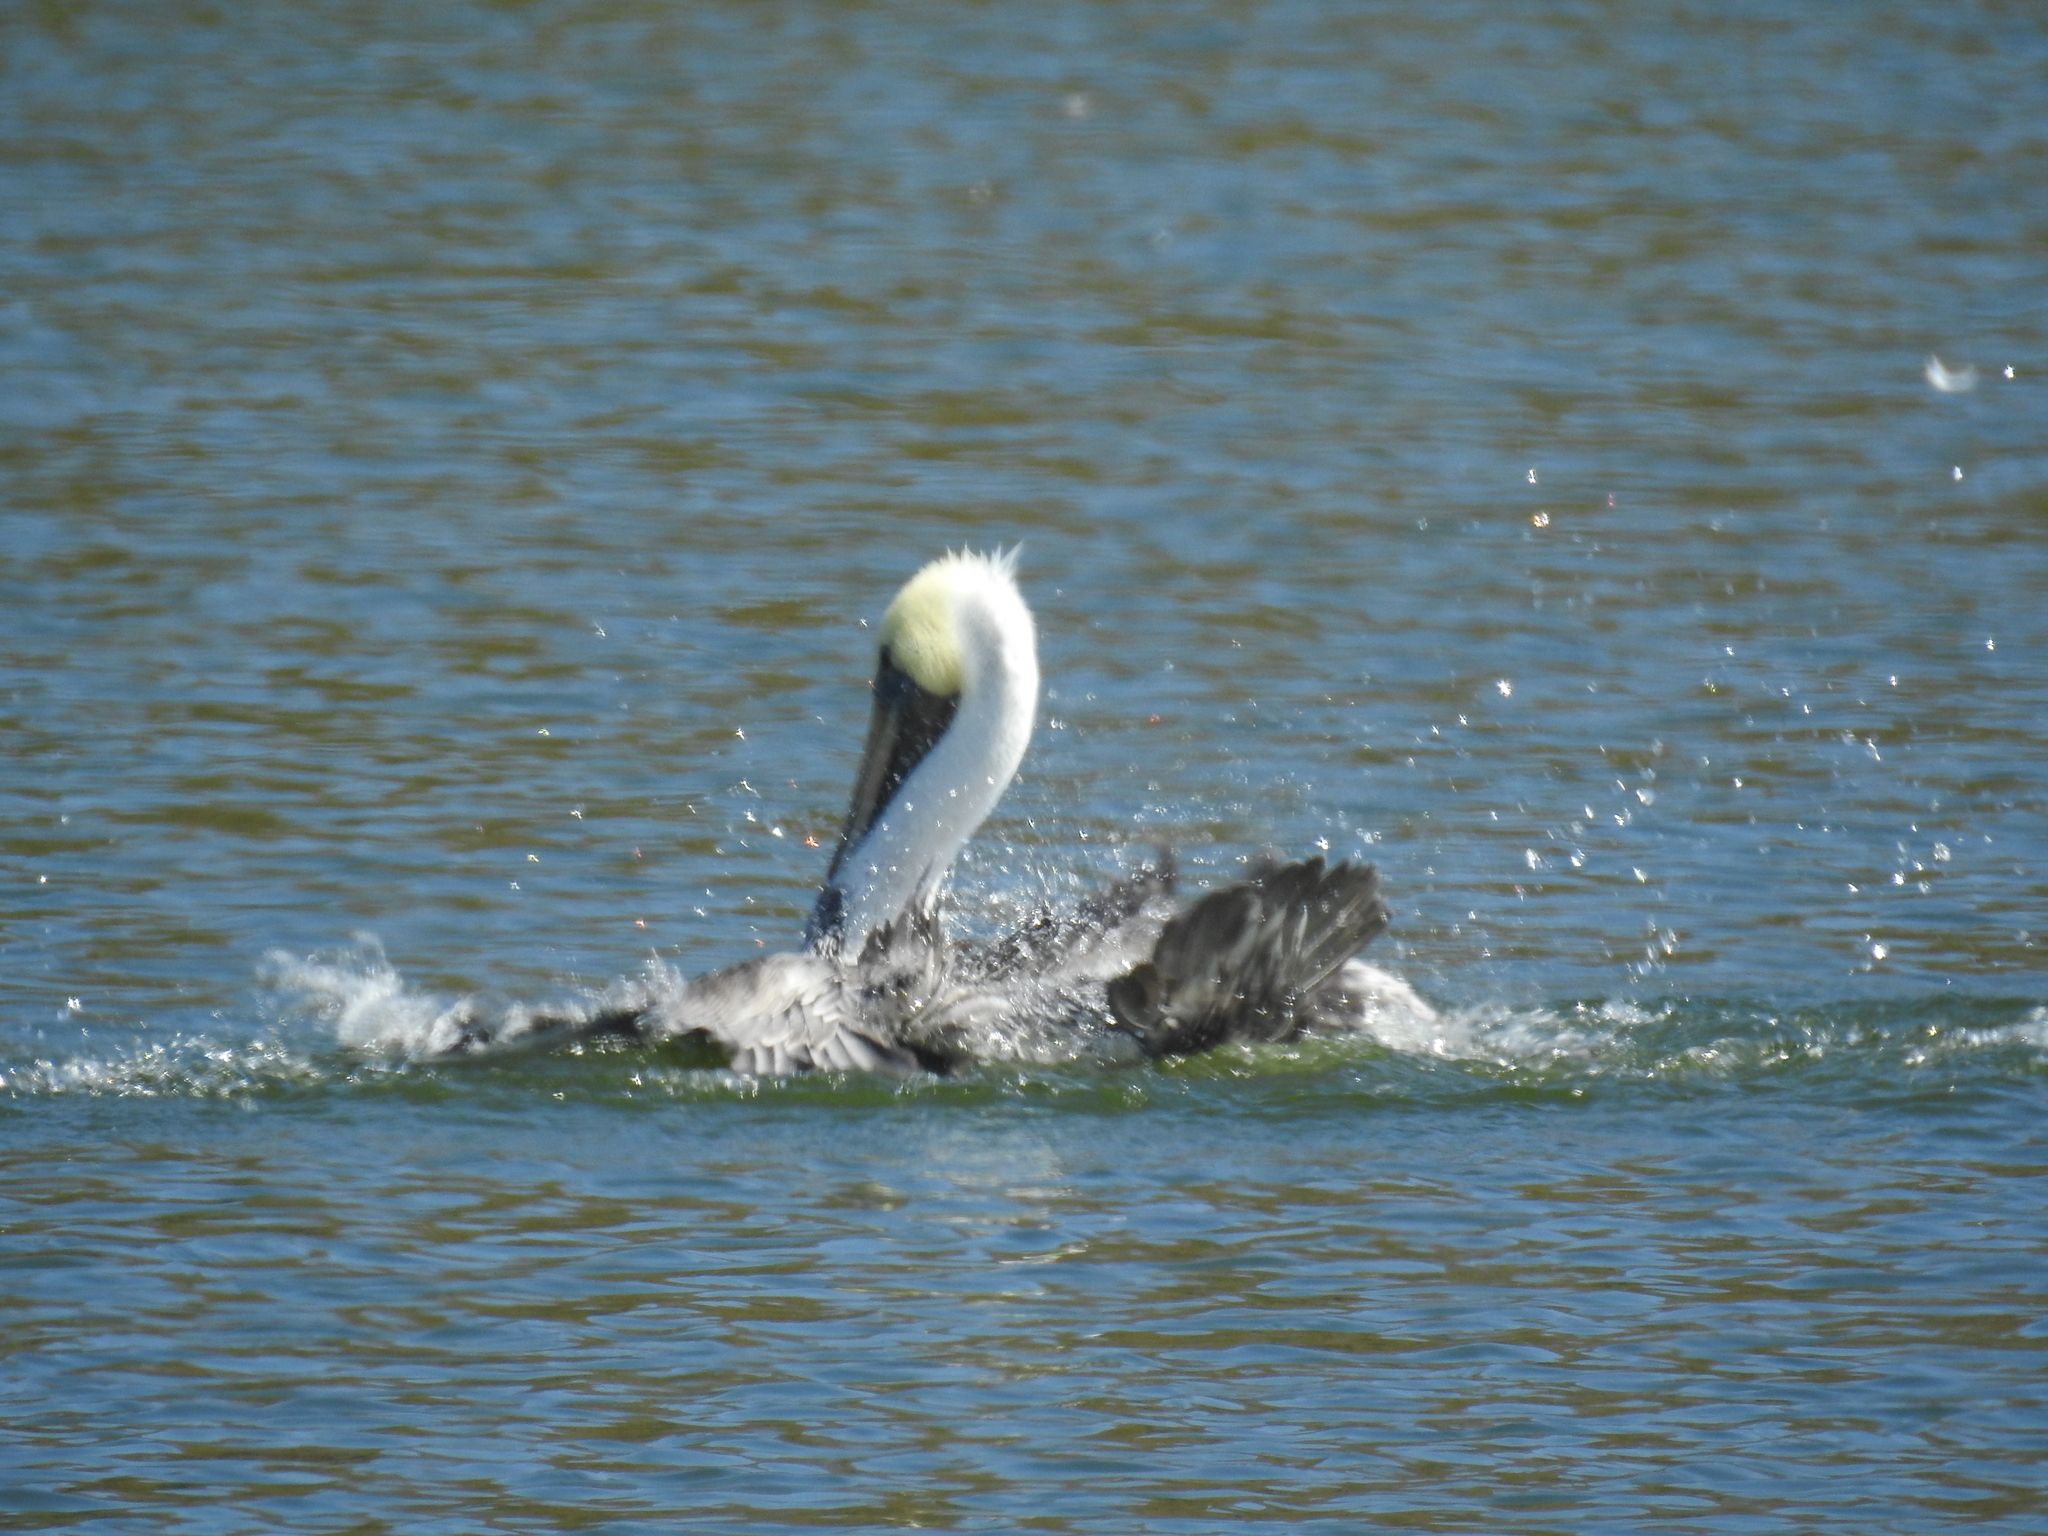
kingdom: Animalia
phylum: Chordata
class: Aves
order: Pelecaniformes
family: Pelecanidae
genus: Pelecanus
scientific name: Pelecanus occidentalis
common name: Brown pelican
